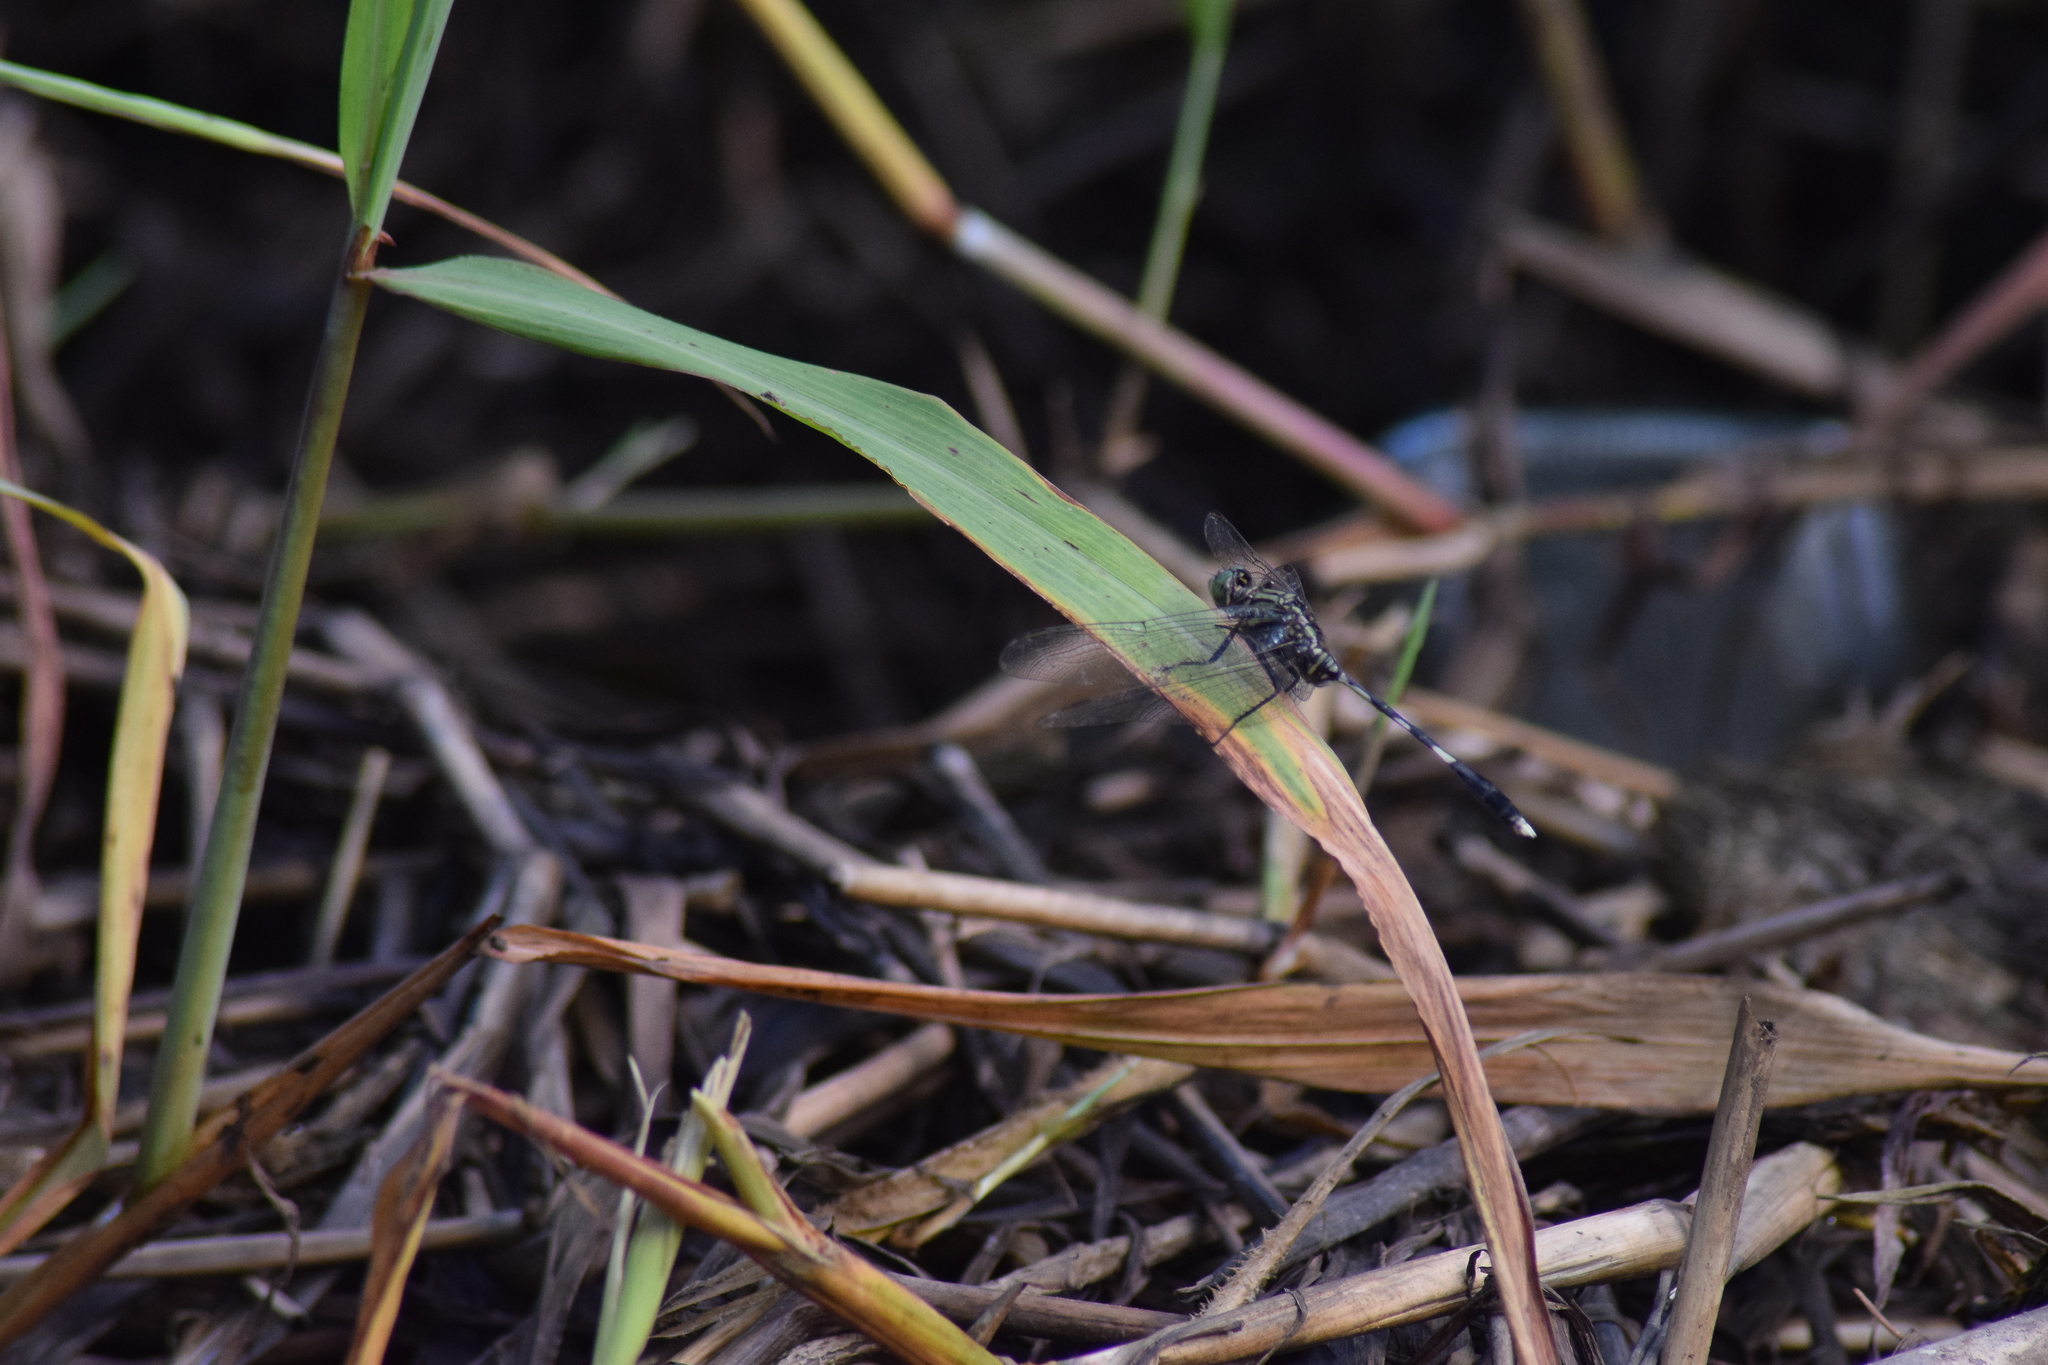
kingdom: Animalia
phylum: Arthropoda
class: Insecta
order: Odonata
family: Libellulidae
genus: Orthetrum
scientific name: Orthetrum sabina
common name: Slender skimmer
